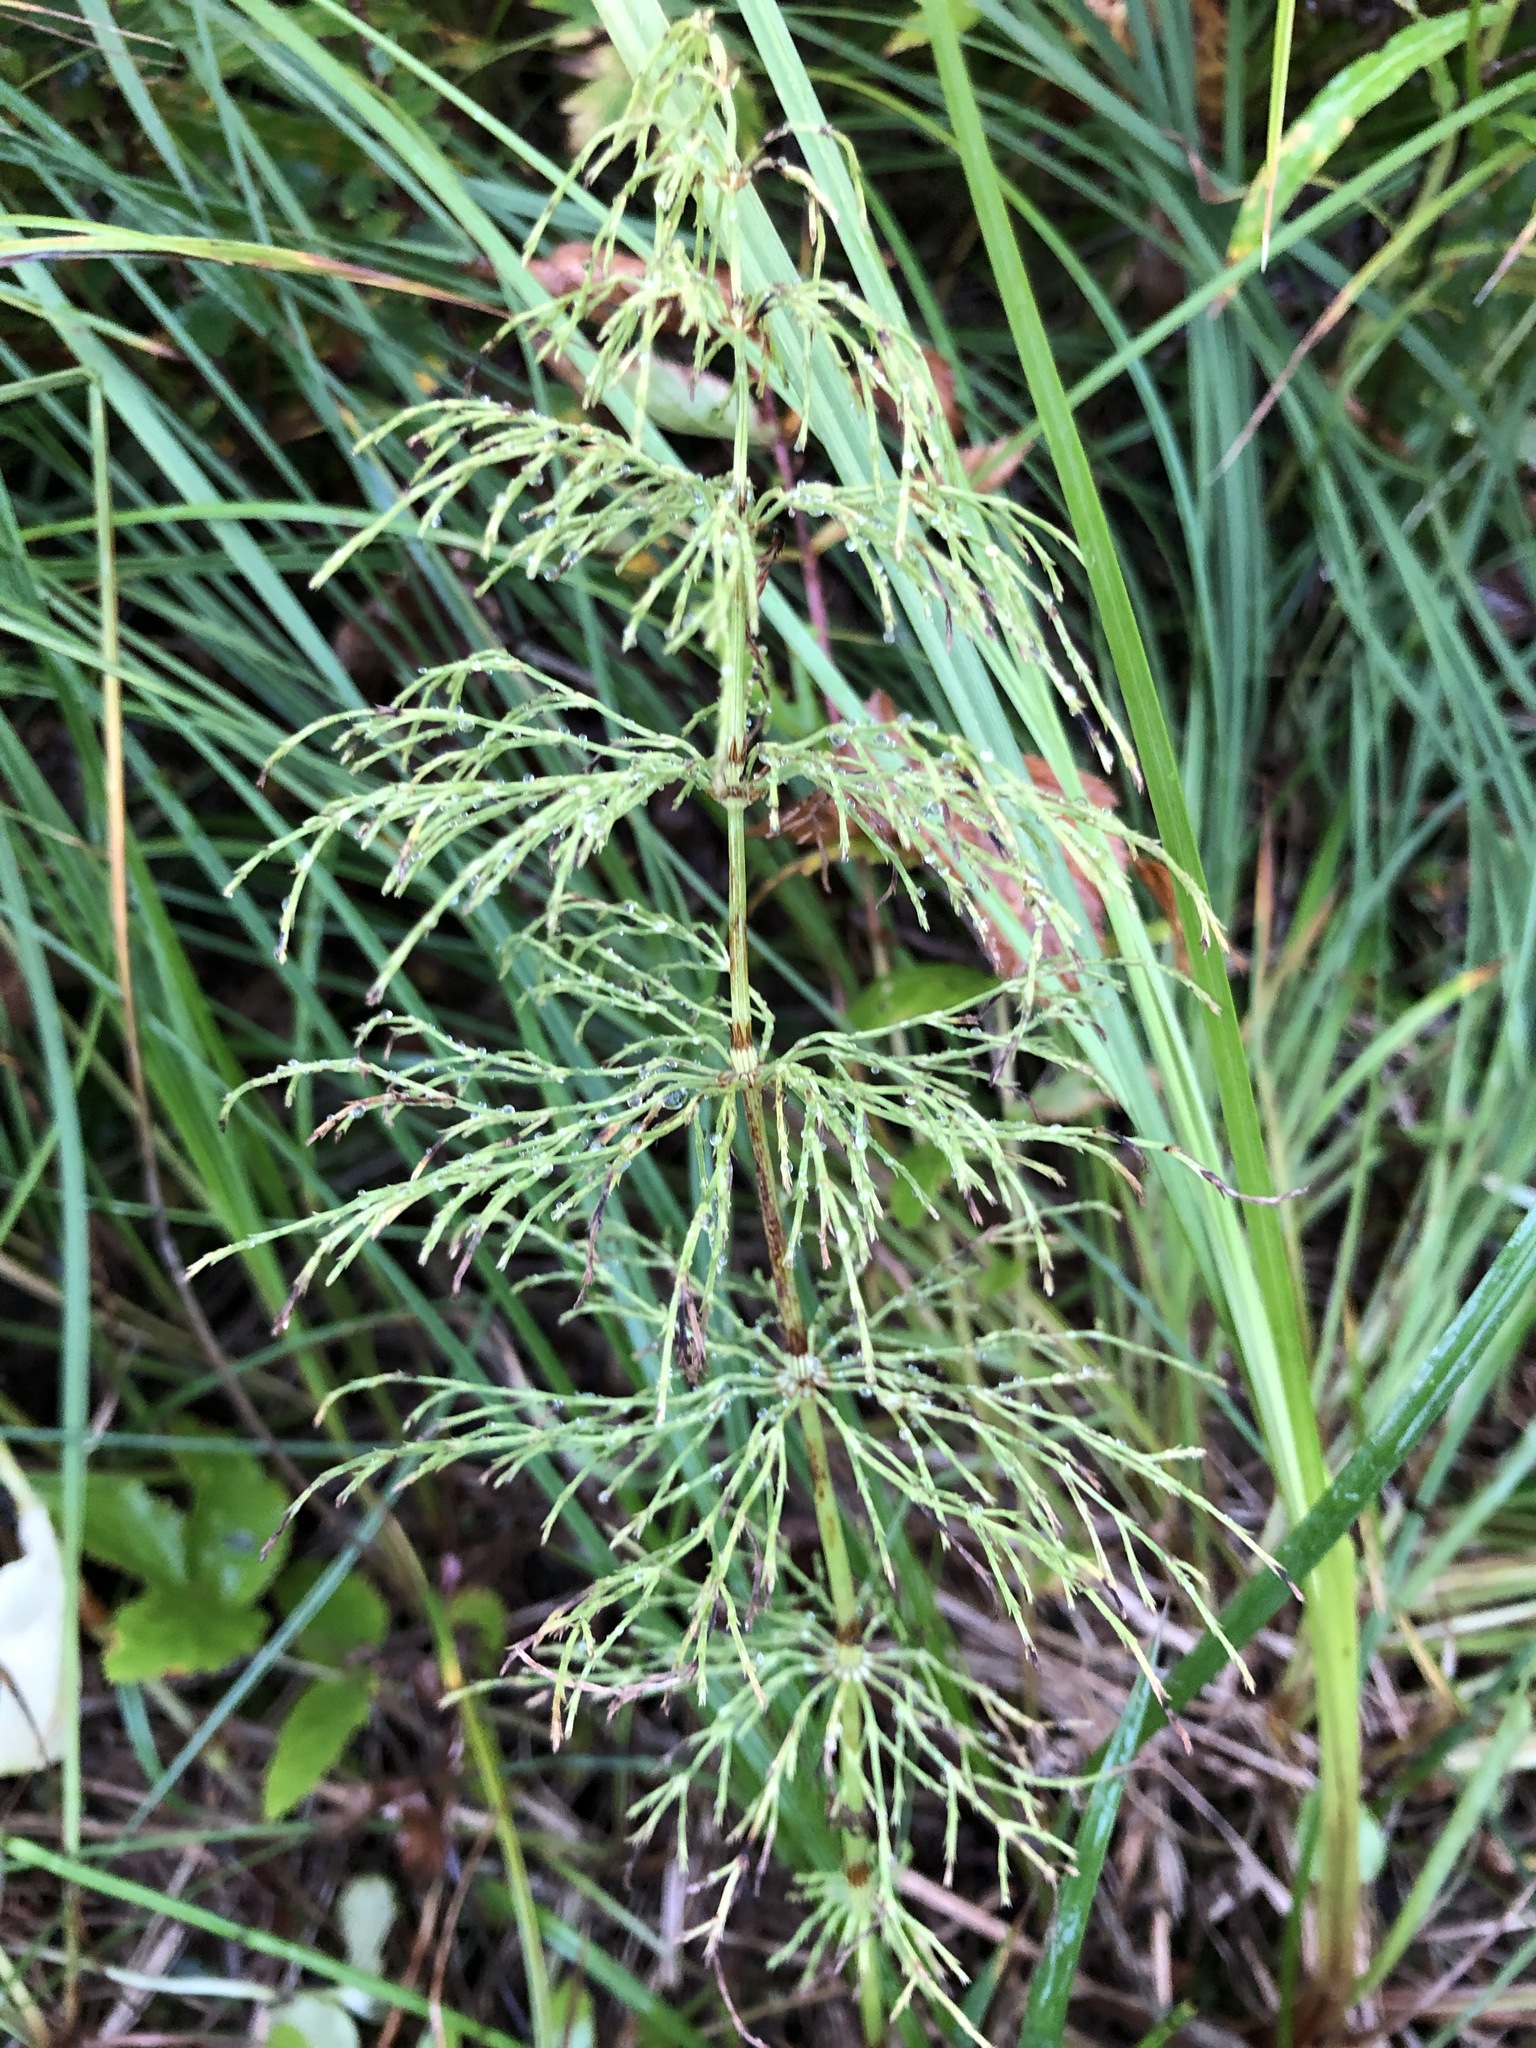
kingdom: Plantae
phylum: Tracheophyta
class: Polypodiopsida
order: Equisetales
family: Equisetaceae
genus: Equisetum
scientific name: Equisetum sylvaticum
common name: Wood horsetail
